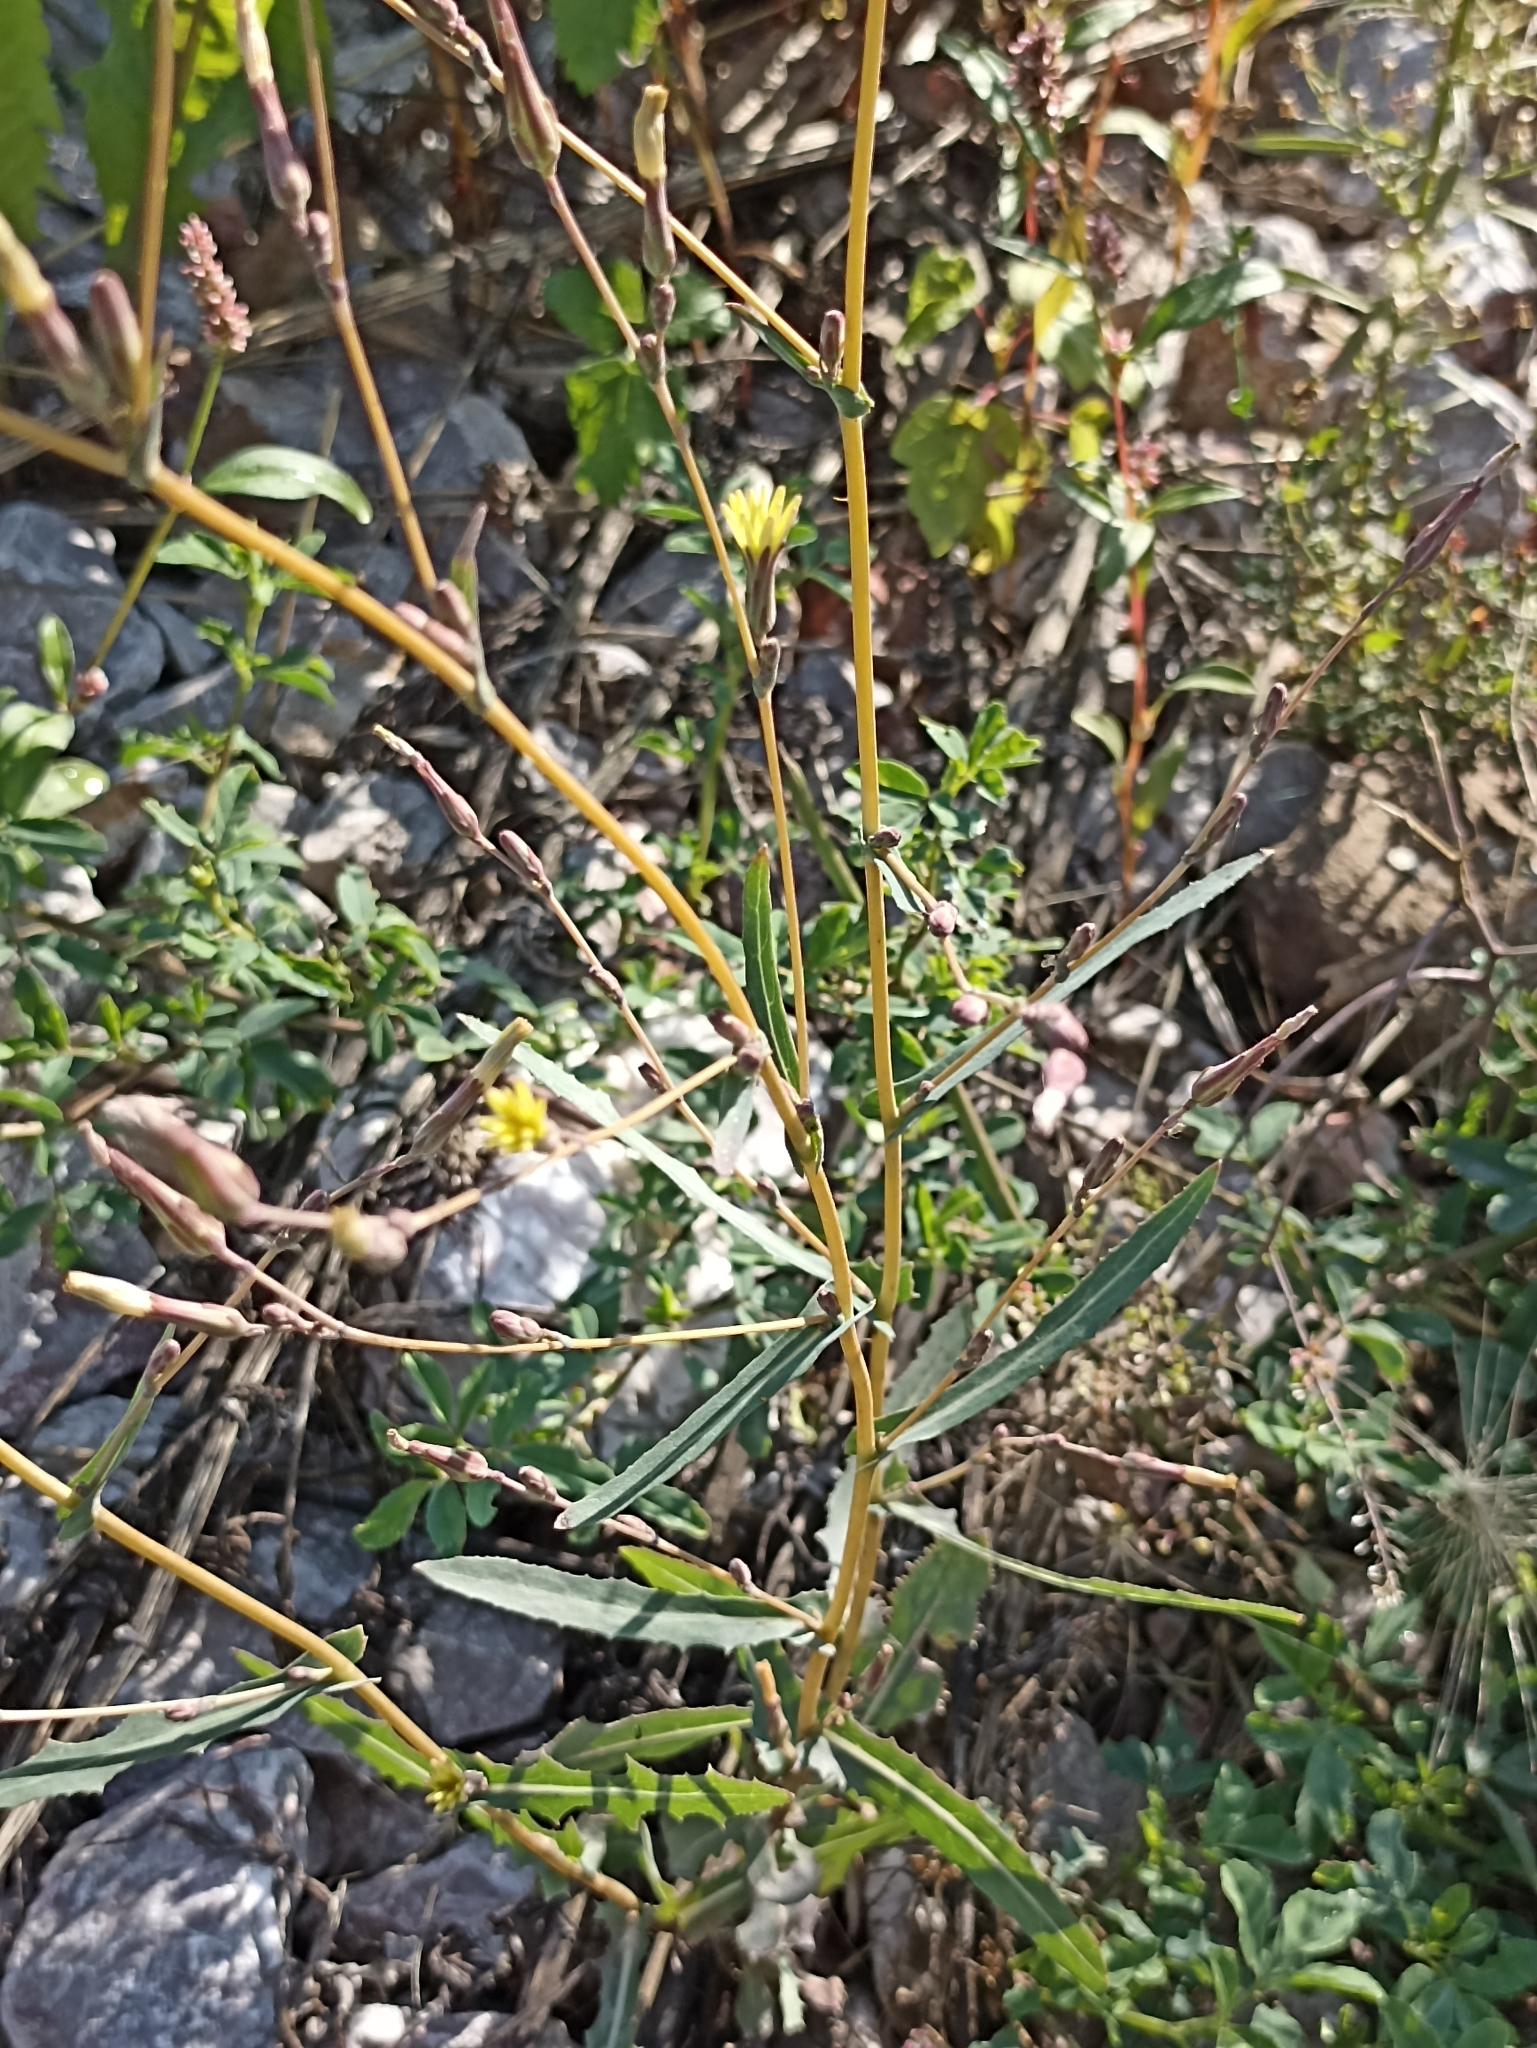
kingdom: Plantae
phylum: Tracheophyta
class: Magnoliopsida
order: Asterales
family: Asteraceae
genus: Lactuca
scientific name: Lactuca serriola
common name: Prickly lettuce
